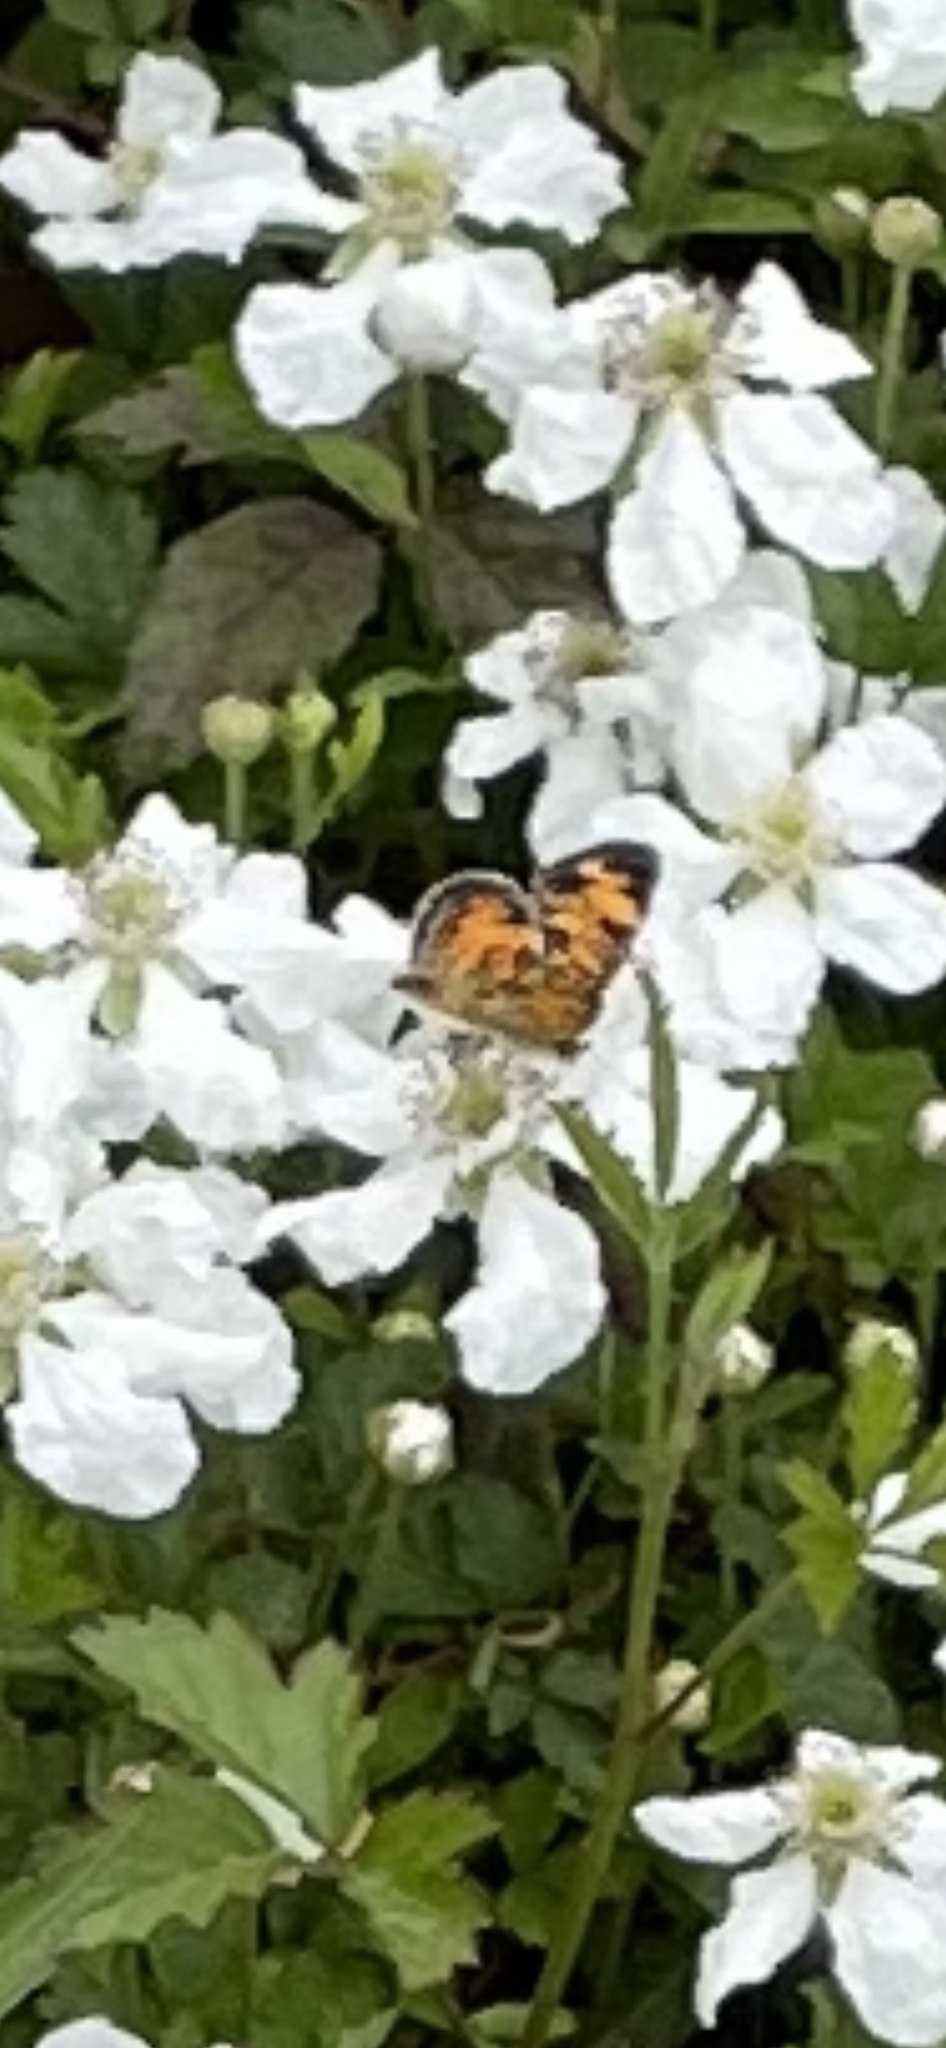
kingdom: Animalia
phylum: Arthropoda
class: Insecta
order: Lepidoptera
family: Nymphalidae
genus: Phyciodes
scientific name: Phyciodes tharos
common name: Pearl crescent
